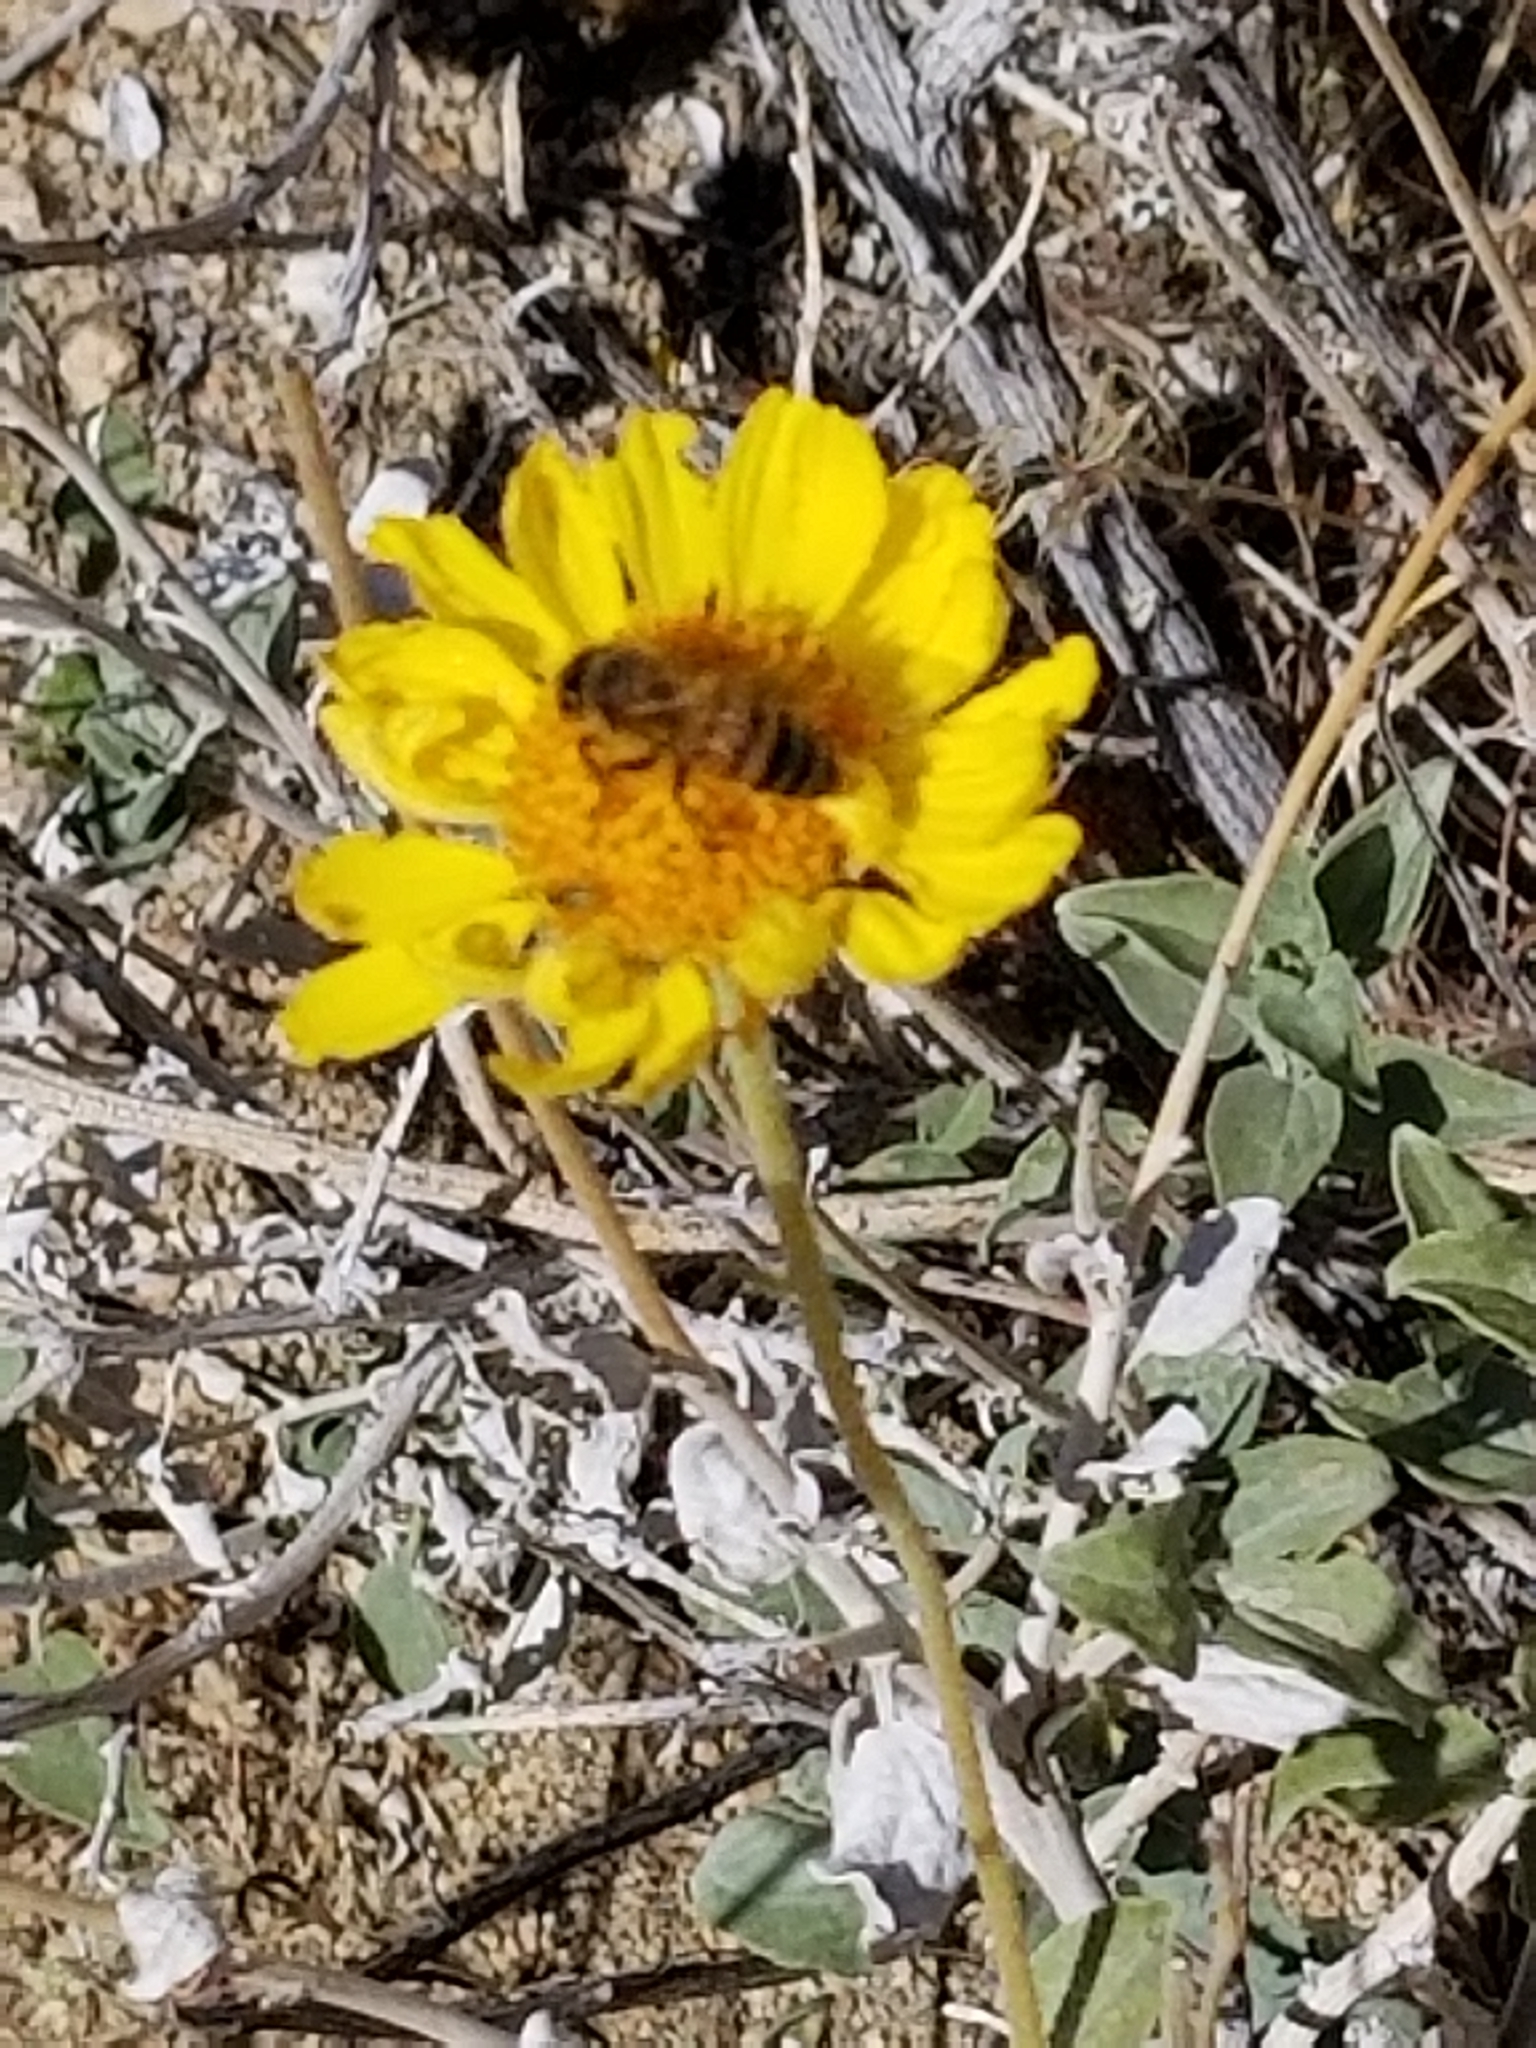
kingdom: Animalia
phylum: Arthropoda
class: Insecta
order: Hymenoptera
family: Apidae
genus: Apis
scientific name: Apis mellifera
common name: Honey bee
